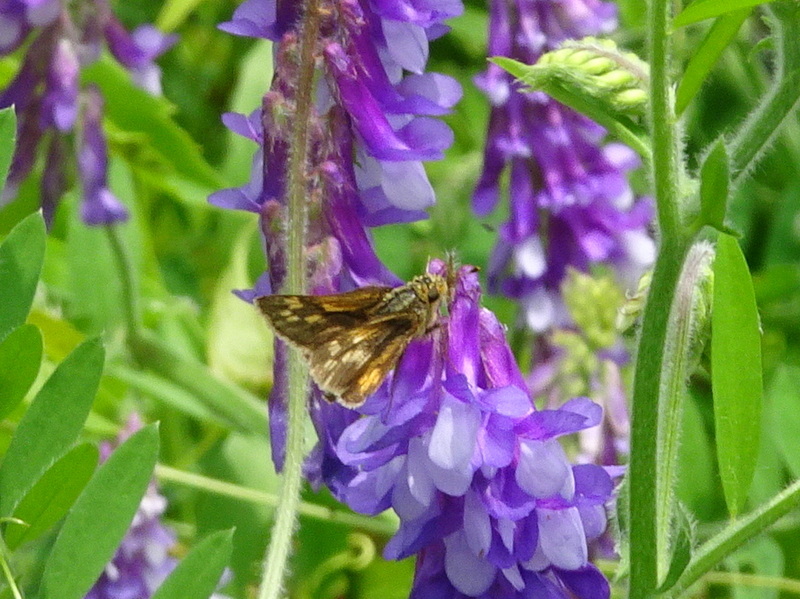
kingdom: Animalia
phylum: Arthropoda
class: Insecta
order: Lepidoptera
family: Hesperiidae
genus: Polites
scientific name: Polites coras
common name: Peck's skipper
